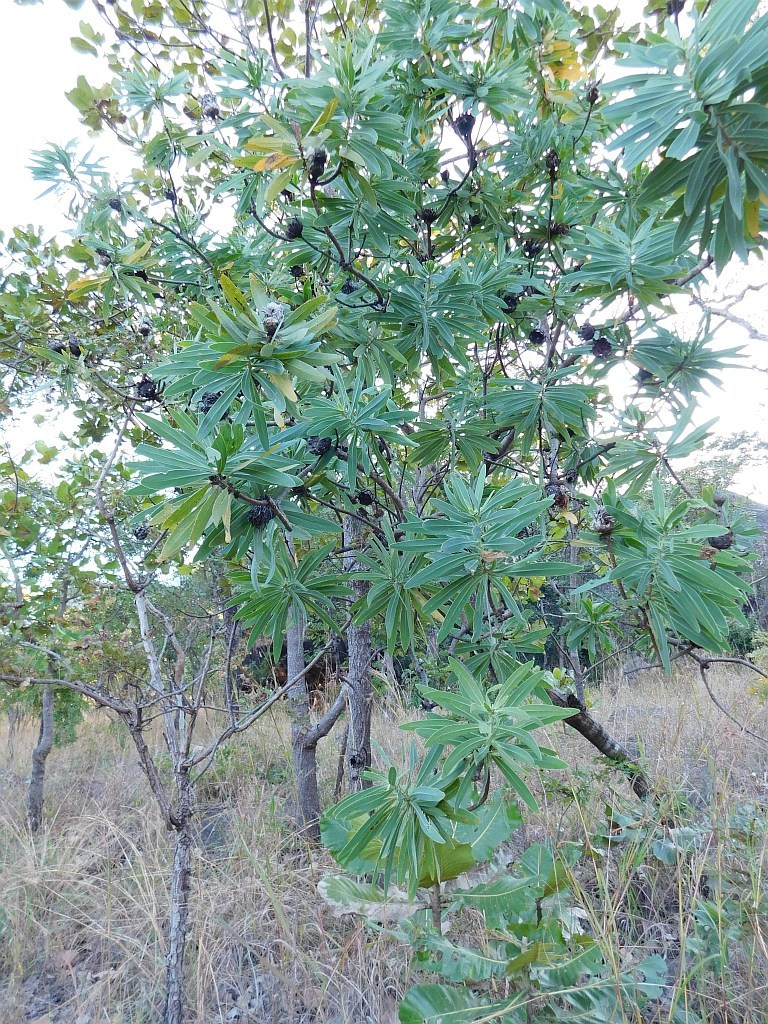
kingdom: Plantae
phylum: Tracheophyta
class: Magnoliopsida
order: Proteales
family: Proteaceae
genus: Protea
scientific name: Protea petiolaris
